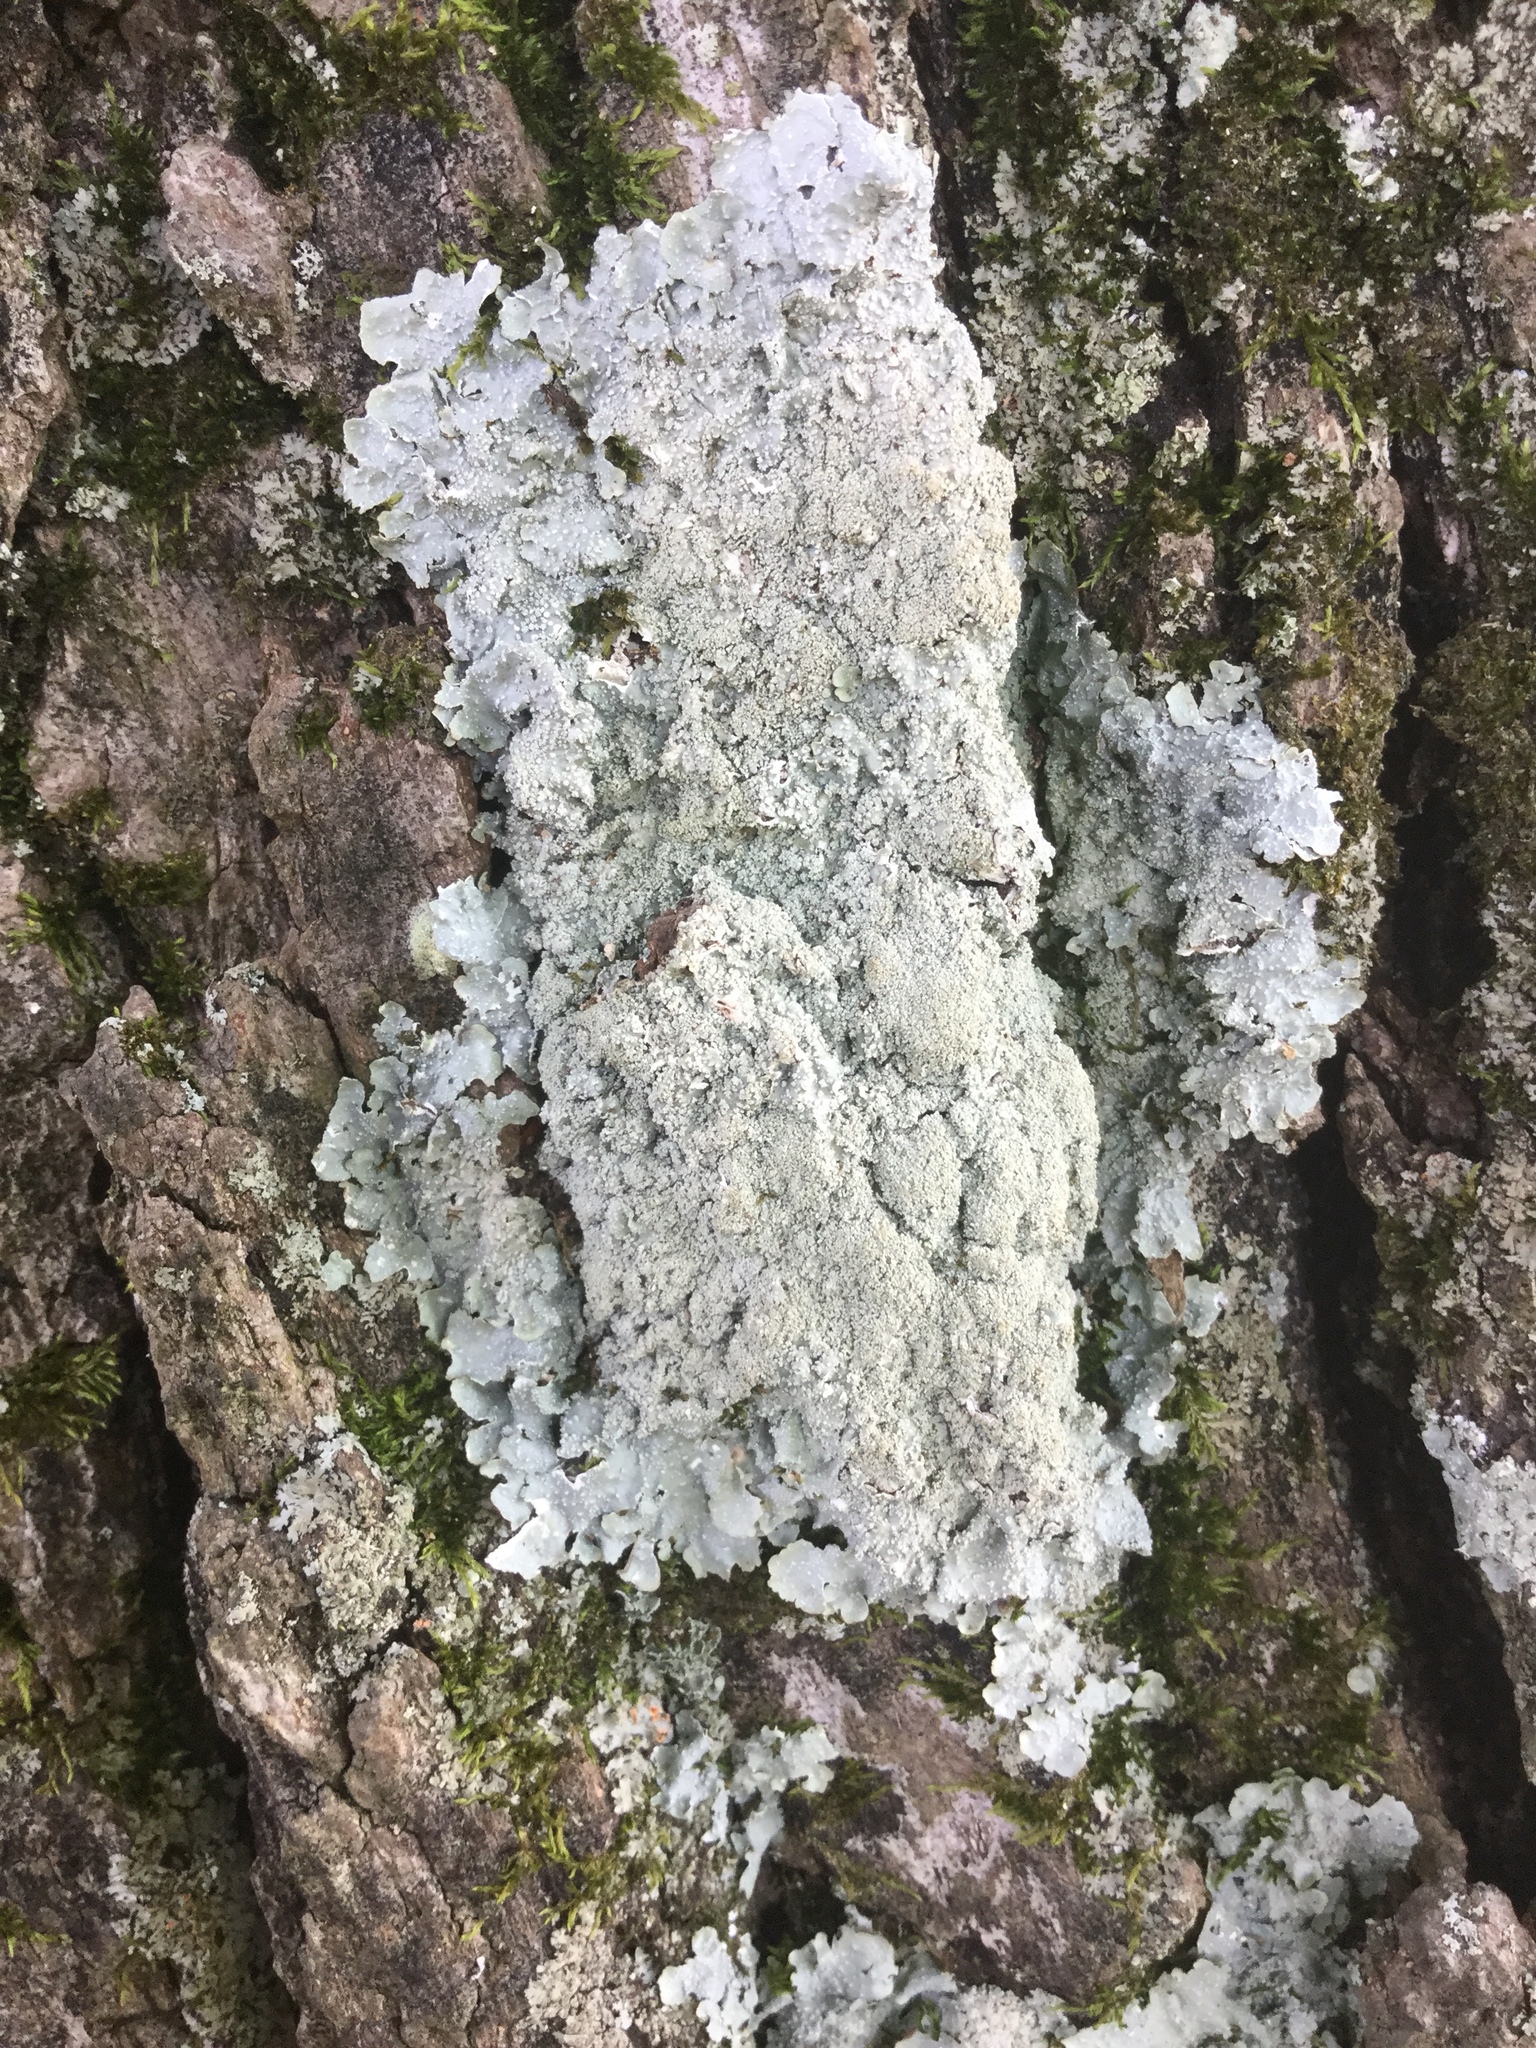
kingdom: Fungi
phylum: Ascomycota
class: Lecanoromycetes
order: Lecanorales
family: Parmeliaceae
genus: Punctelia
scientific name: Punctelia missouriensis
